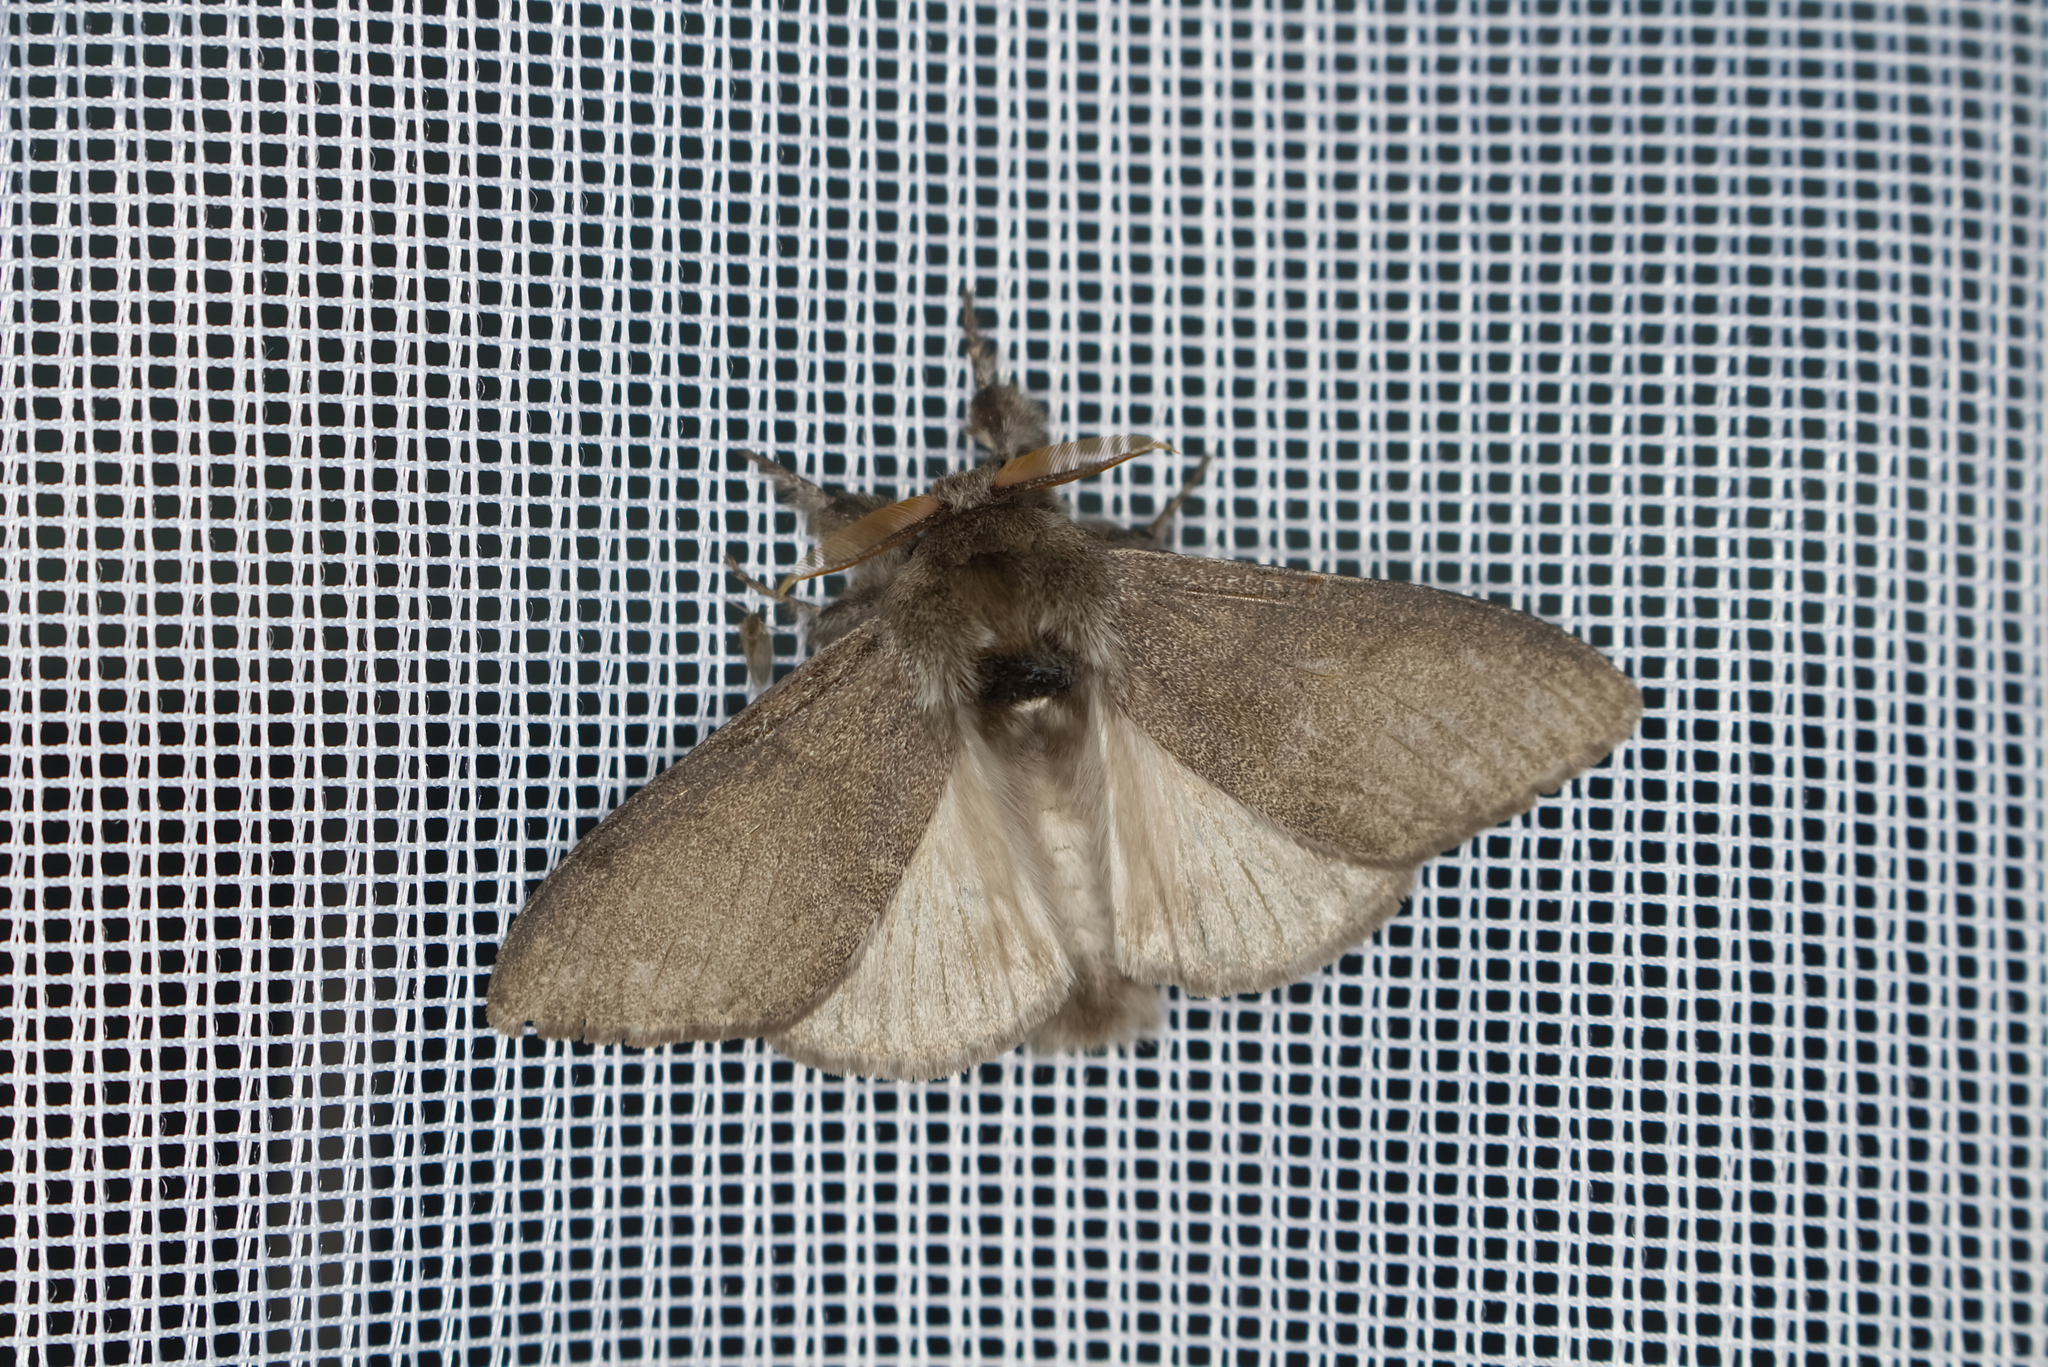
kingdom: Animalia
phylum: Arthropoda
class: Insecta
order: Lepidoptera
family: Erebidae
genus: Calliteara
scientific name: Calliteara pudibunda
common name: Pale tussock
